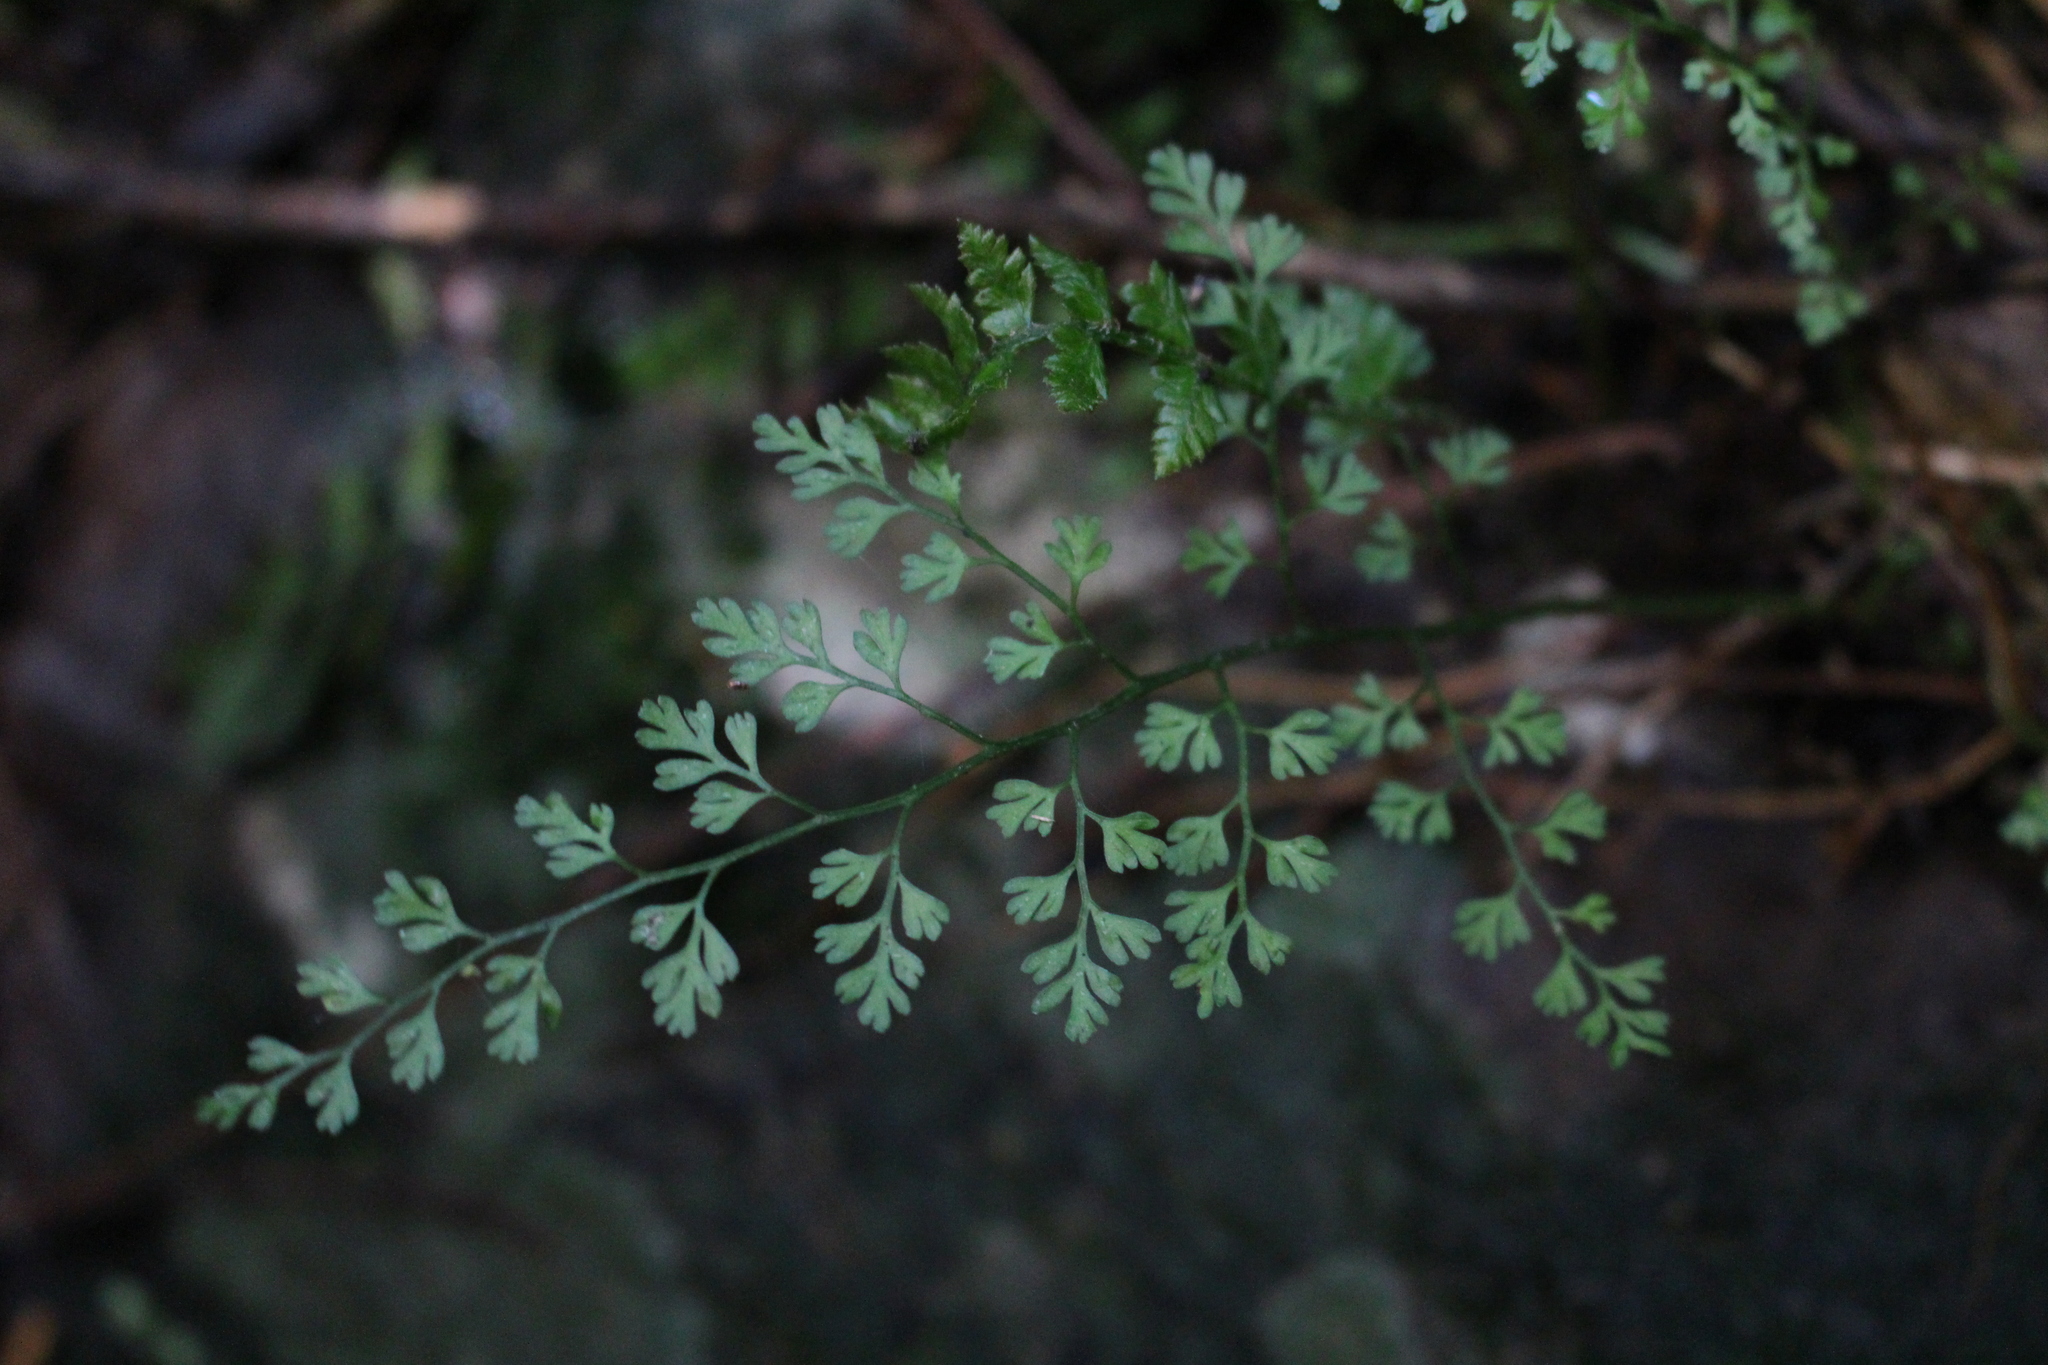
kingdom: Plantae
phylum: Tracheophyta
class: Polypodiopsida
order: Polypodiales
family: Aspleniaceae
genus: Asplenium
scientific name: Asplenium hookerianum
